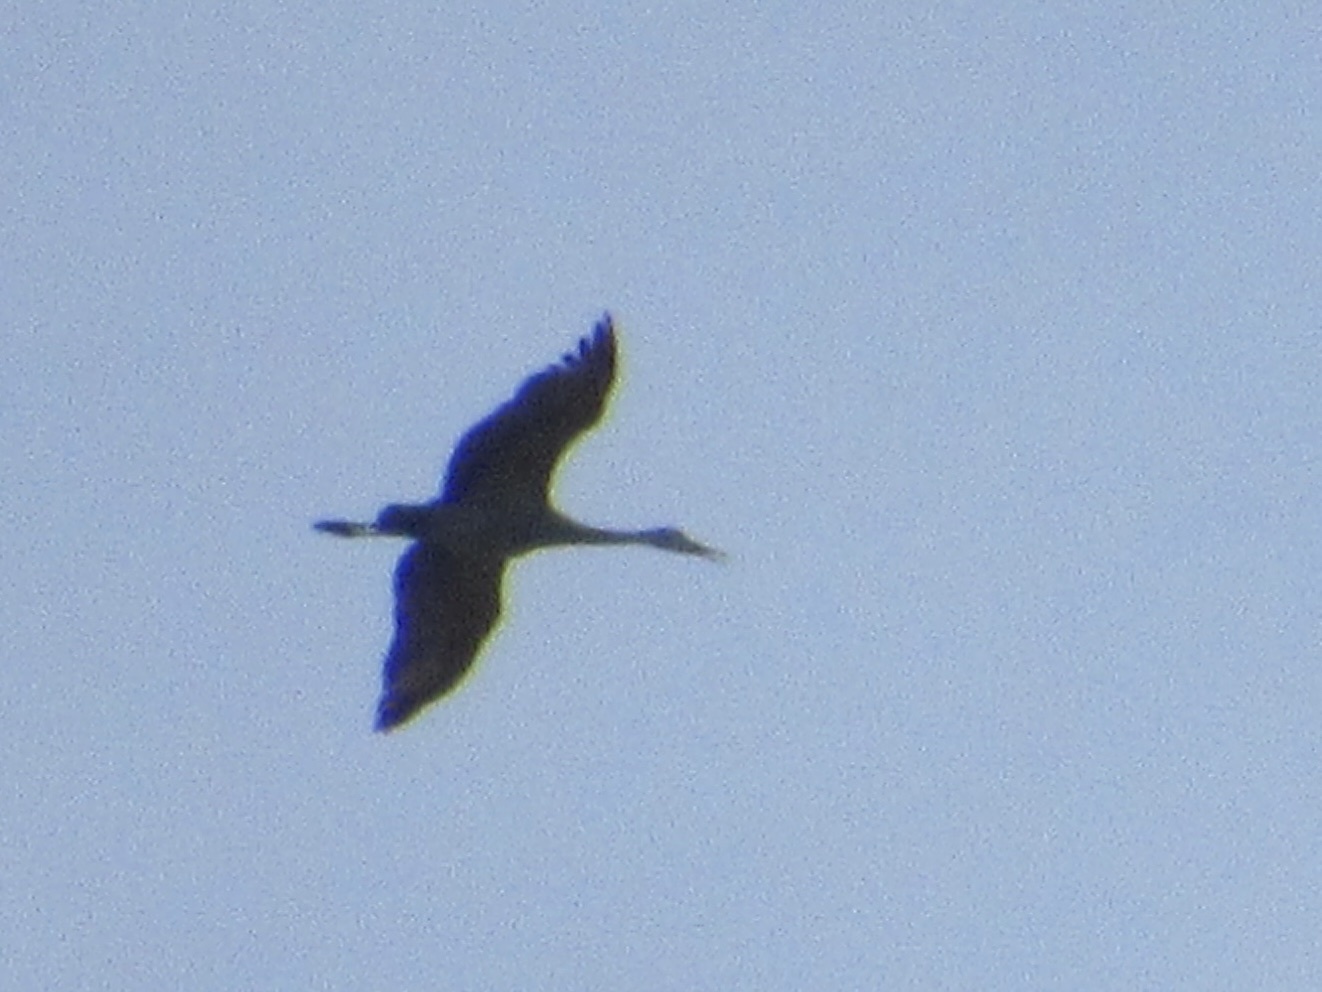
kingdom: Animalia
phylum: Chordata
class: Aves
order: Gruiformes
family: Gruidae
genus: Grus
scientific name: Grus canadensis
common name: Sandhill crane
